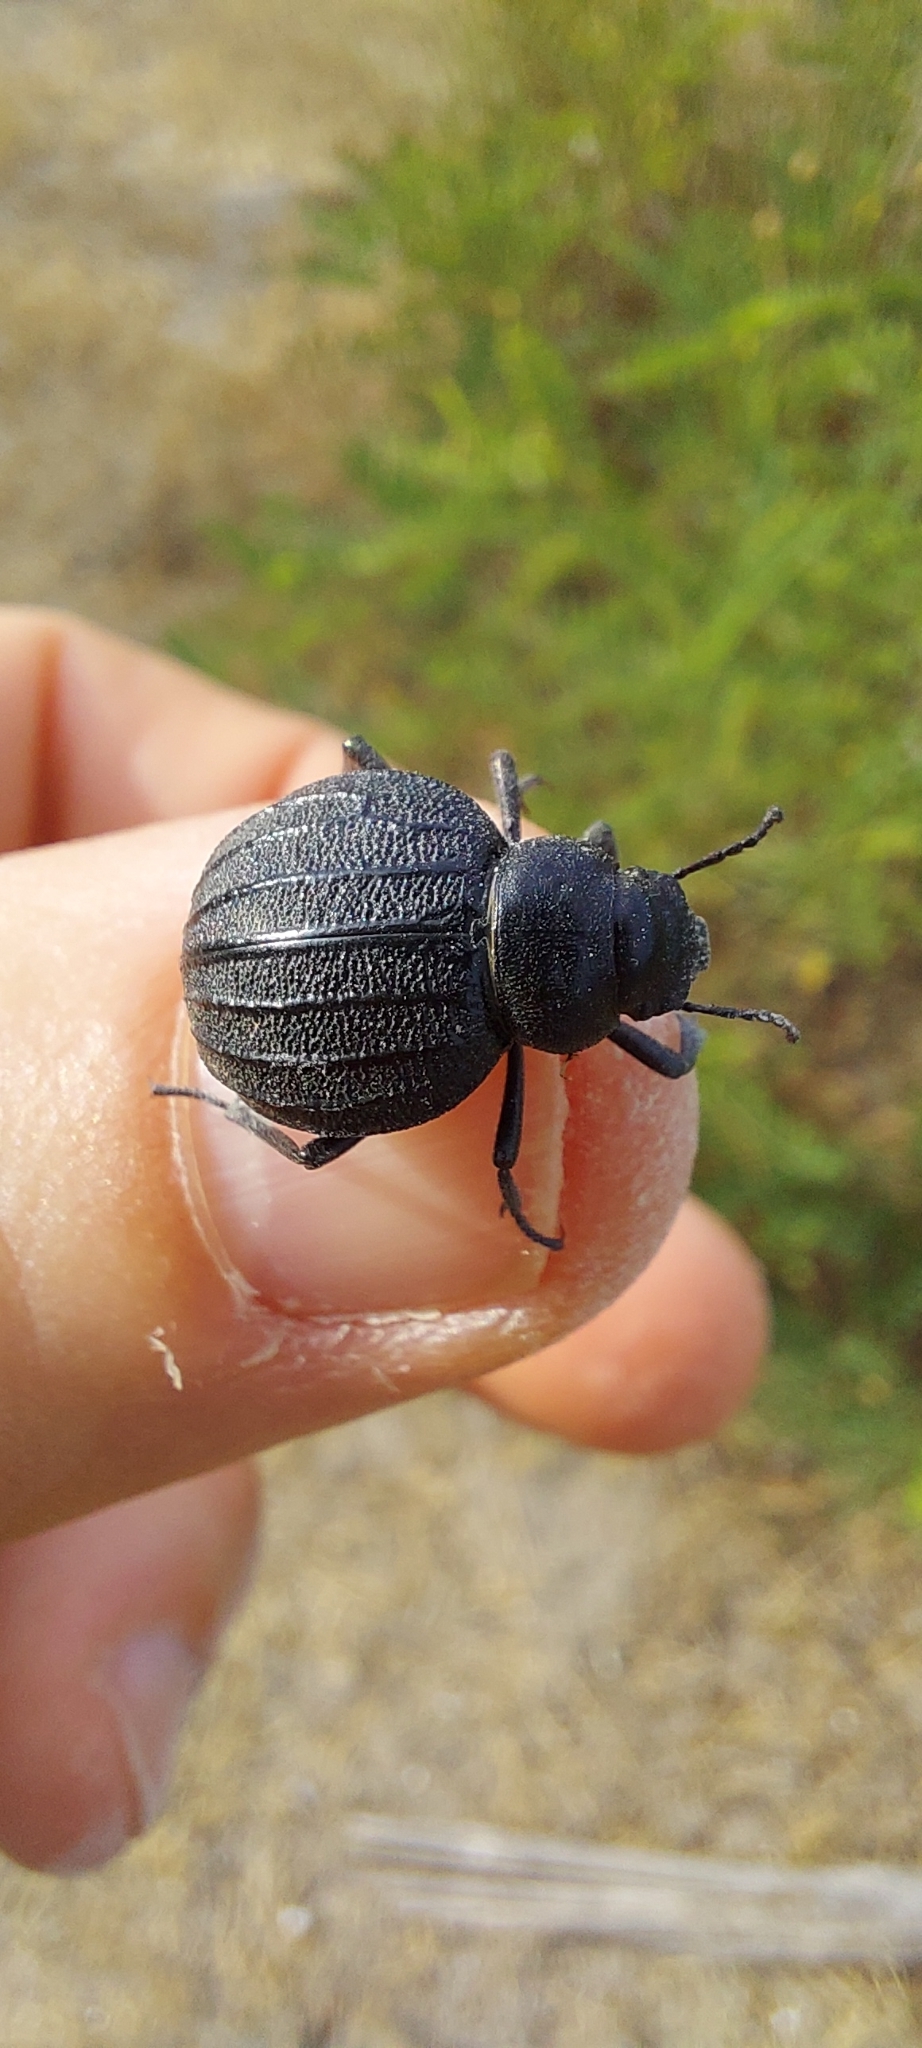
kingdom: Animalia
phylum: Arthropoda
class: Insecta
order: Coleoptera
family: Tenebrionidae
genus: Pimelia
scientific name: Pimelia bipunctata
